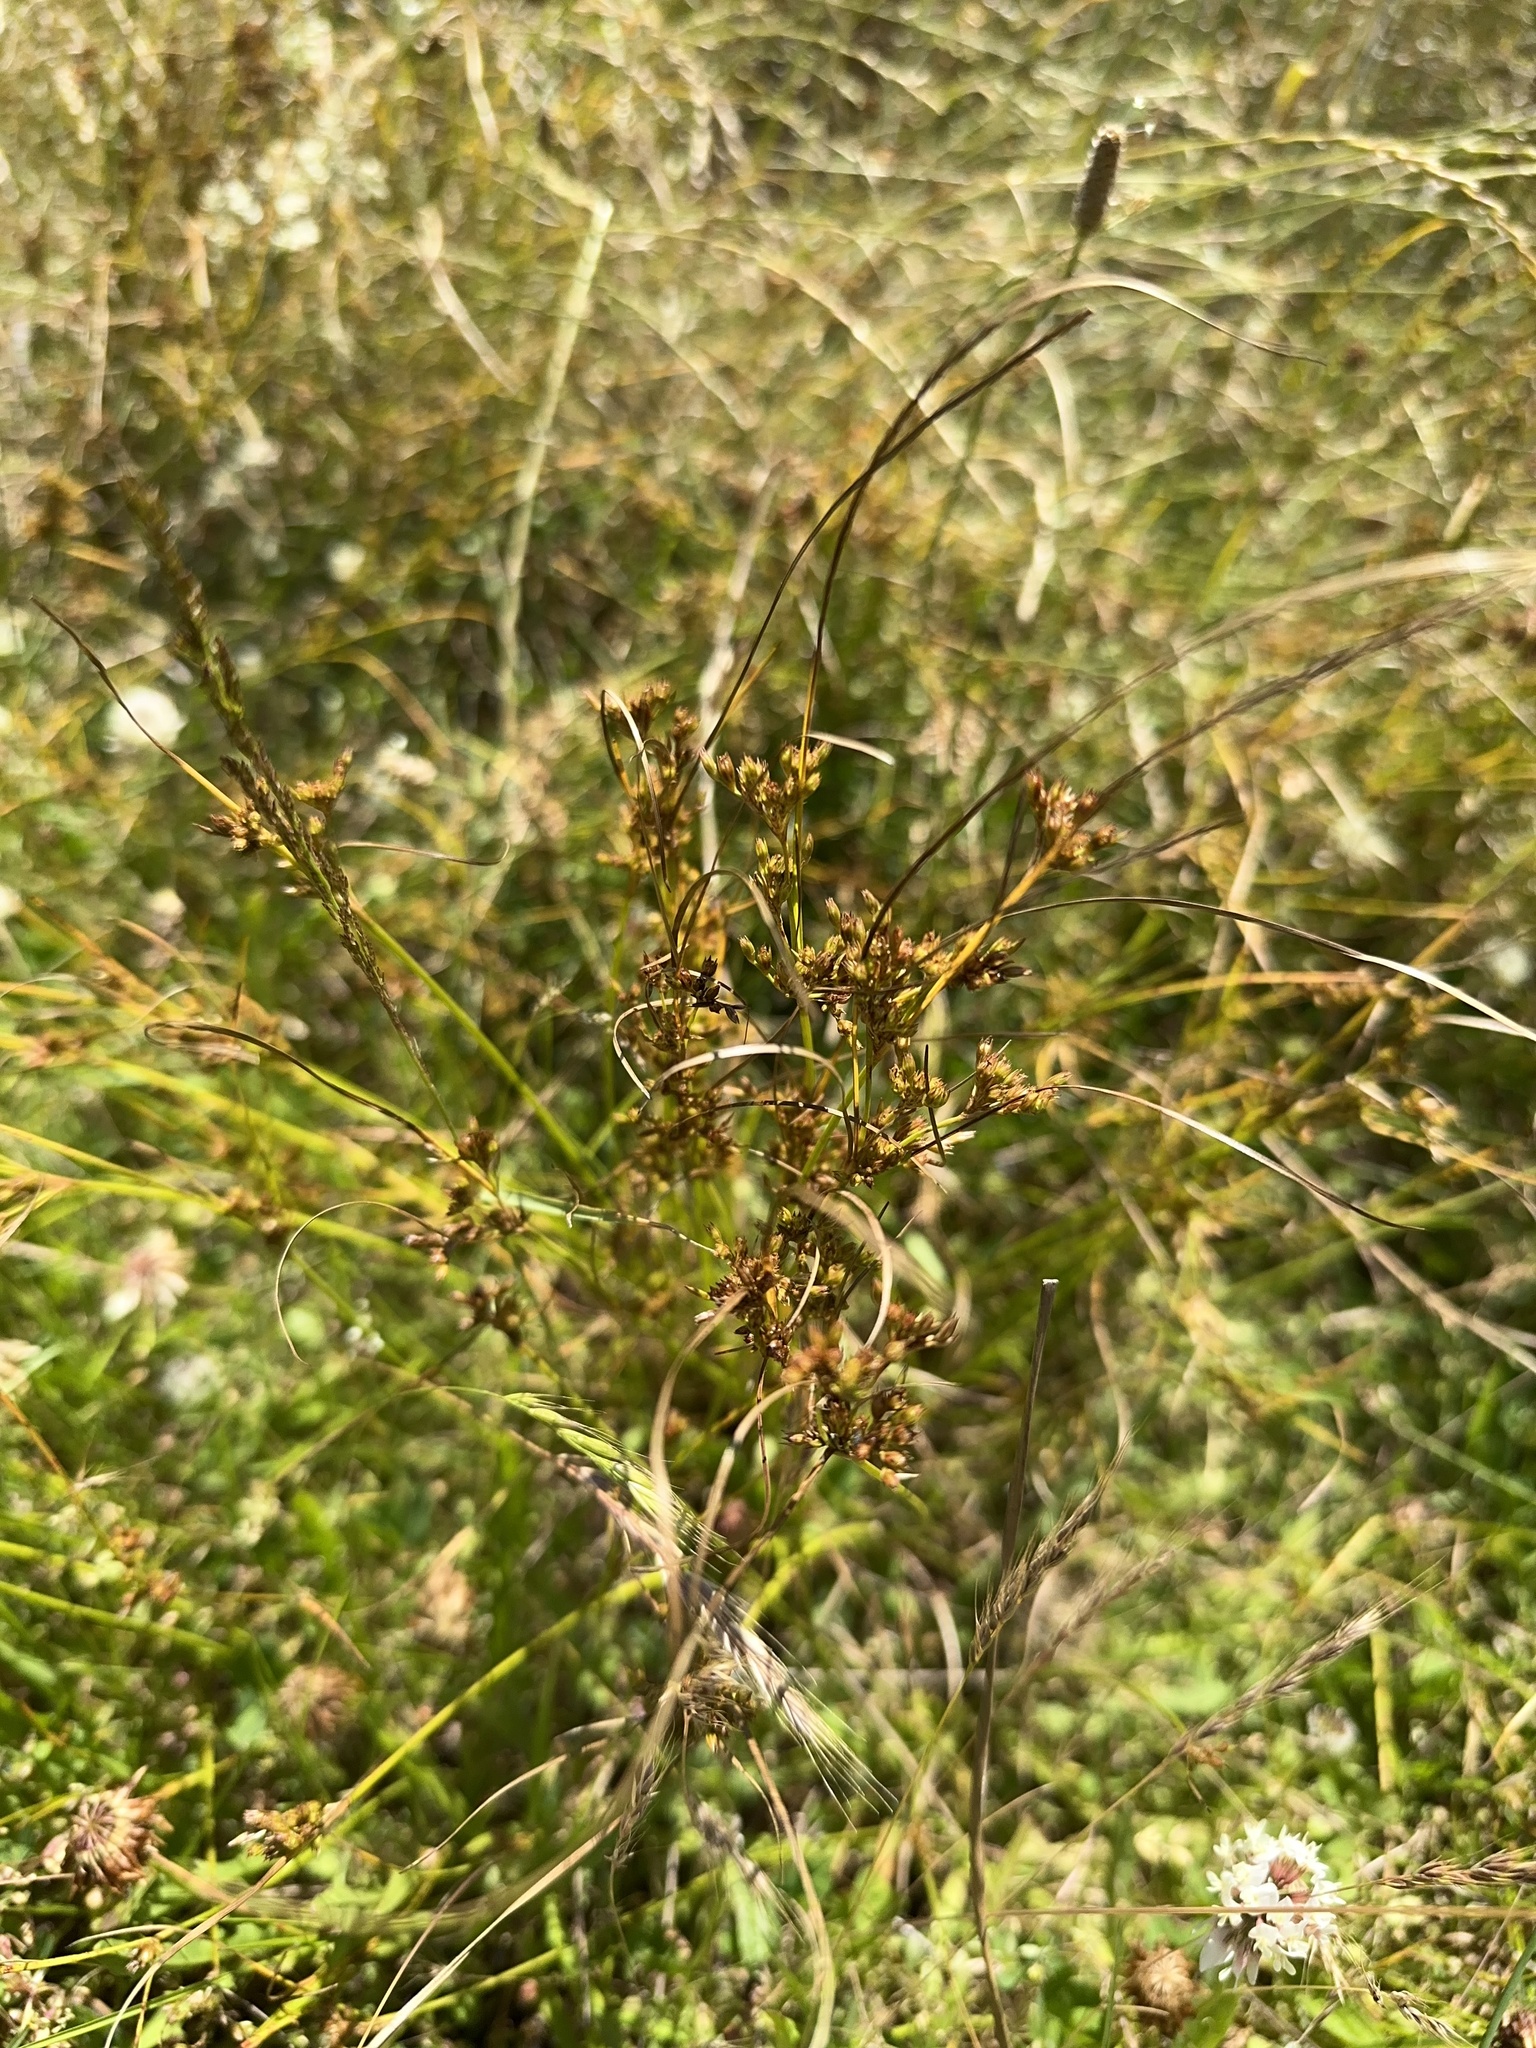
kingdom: Plantae
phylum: Tracheophyta
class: Liliopsida
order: Poales
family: Juncaceae
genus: Juncus
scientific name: Juncus tenuis
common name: Slender rush
